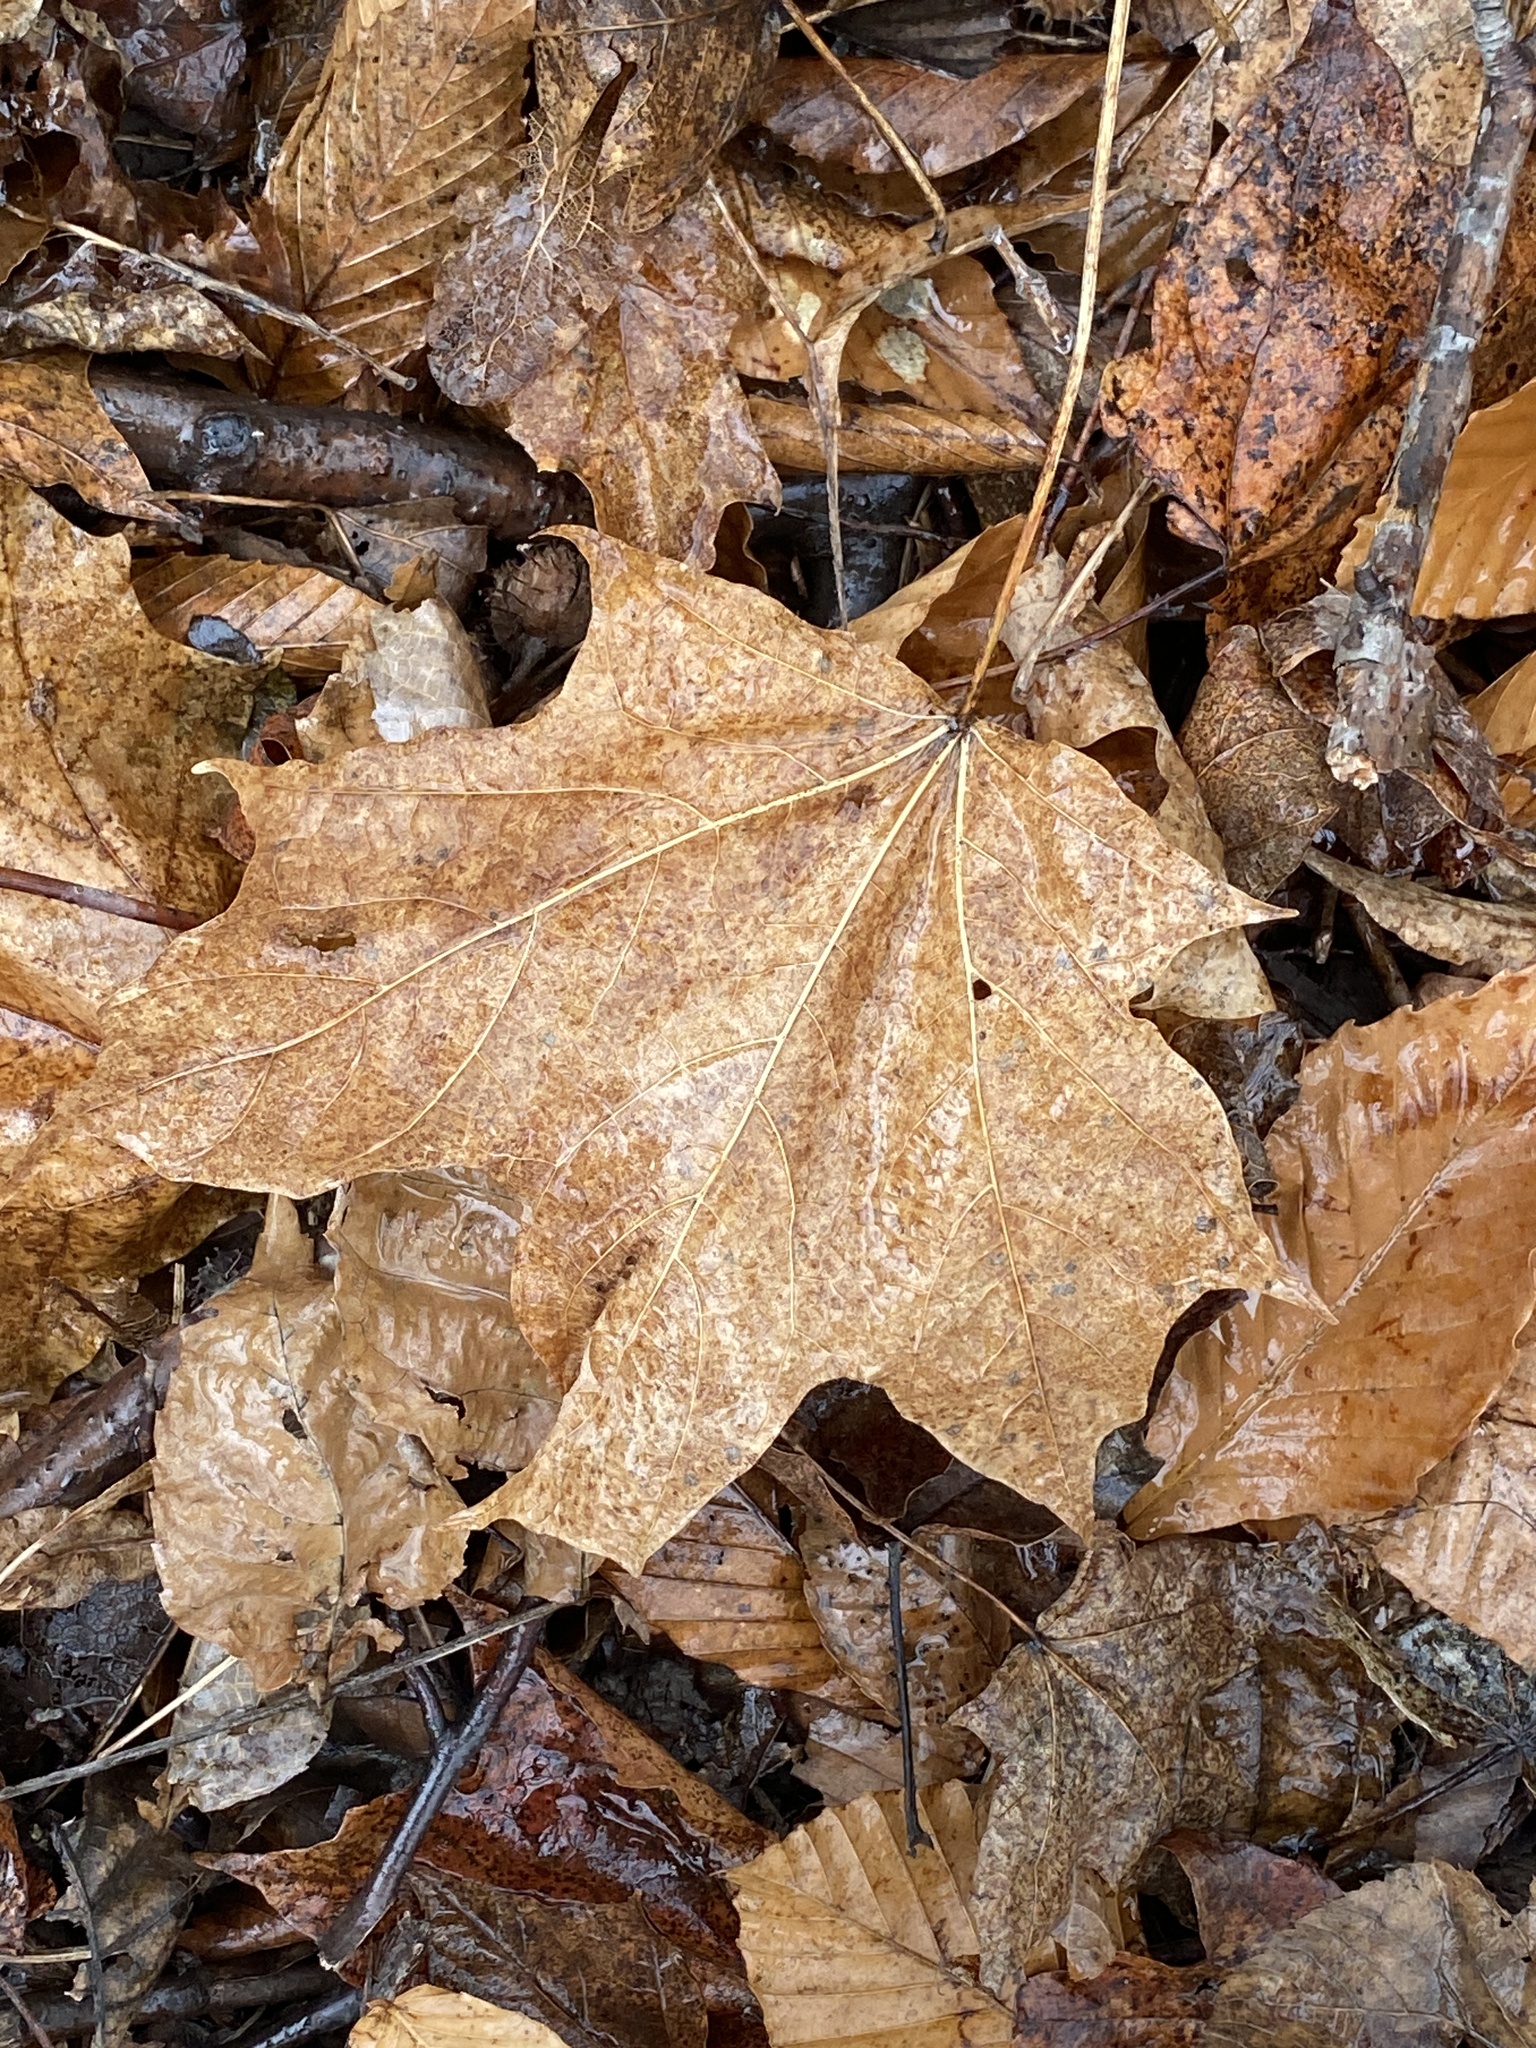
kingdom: Plantae
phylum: Tracheophyta
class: Magnoliopsida
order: Sapindales
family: Sapindaceae
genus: Acer
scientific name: Acer saccharum
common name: Sugar maple
